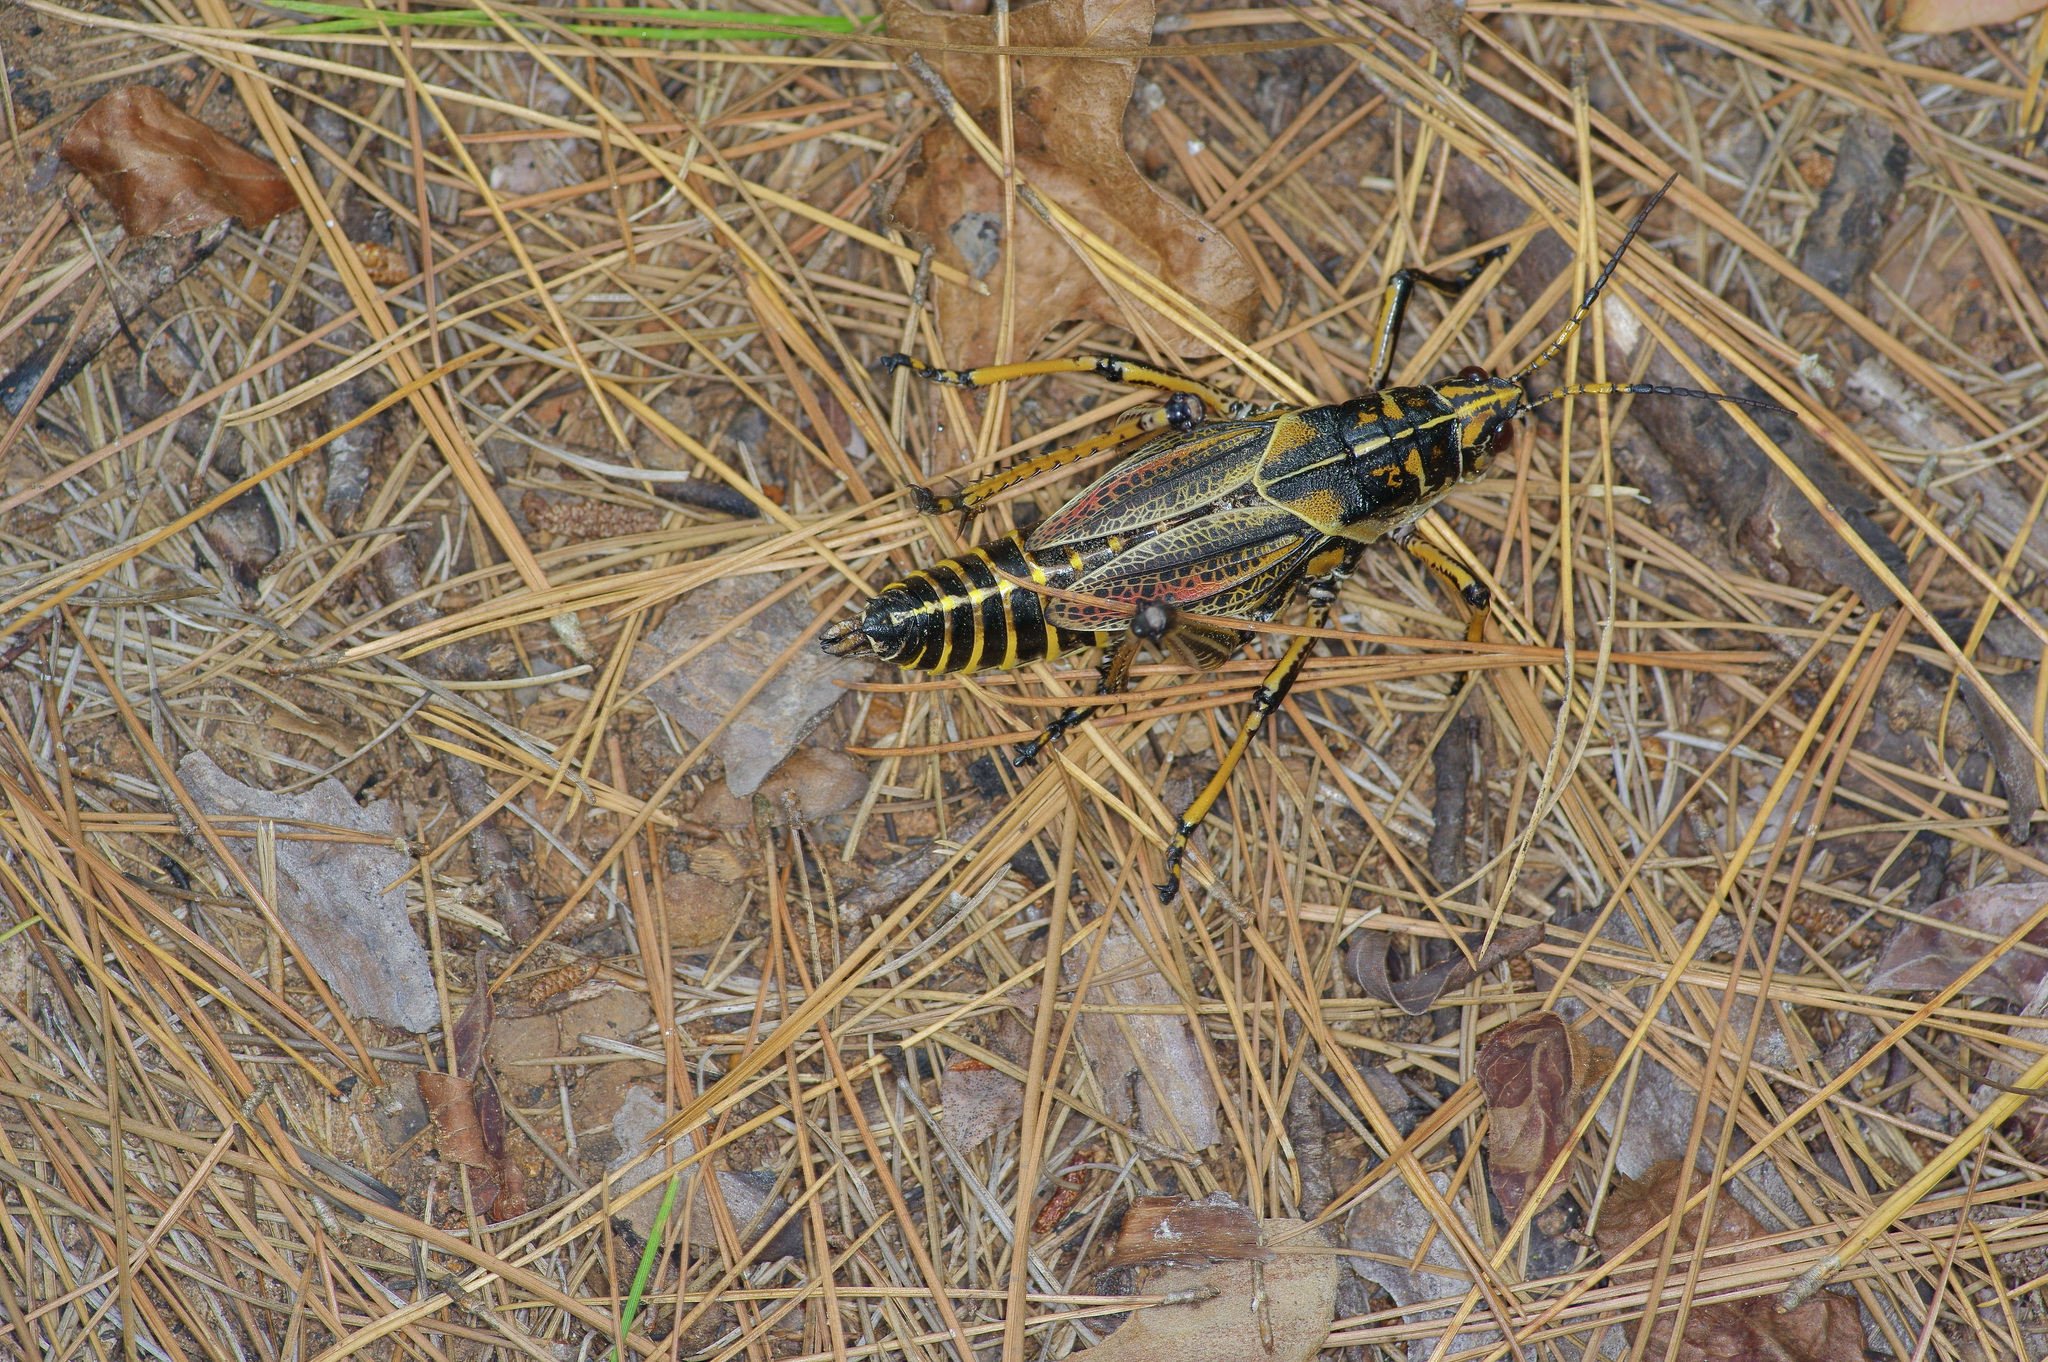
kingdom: Animalia
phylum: Arthropoda
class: Insecta
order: Orthoptera
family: Romaleidae
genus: Romalea
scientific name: Romalea microptera
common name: Eastern lubber grasshopper
